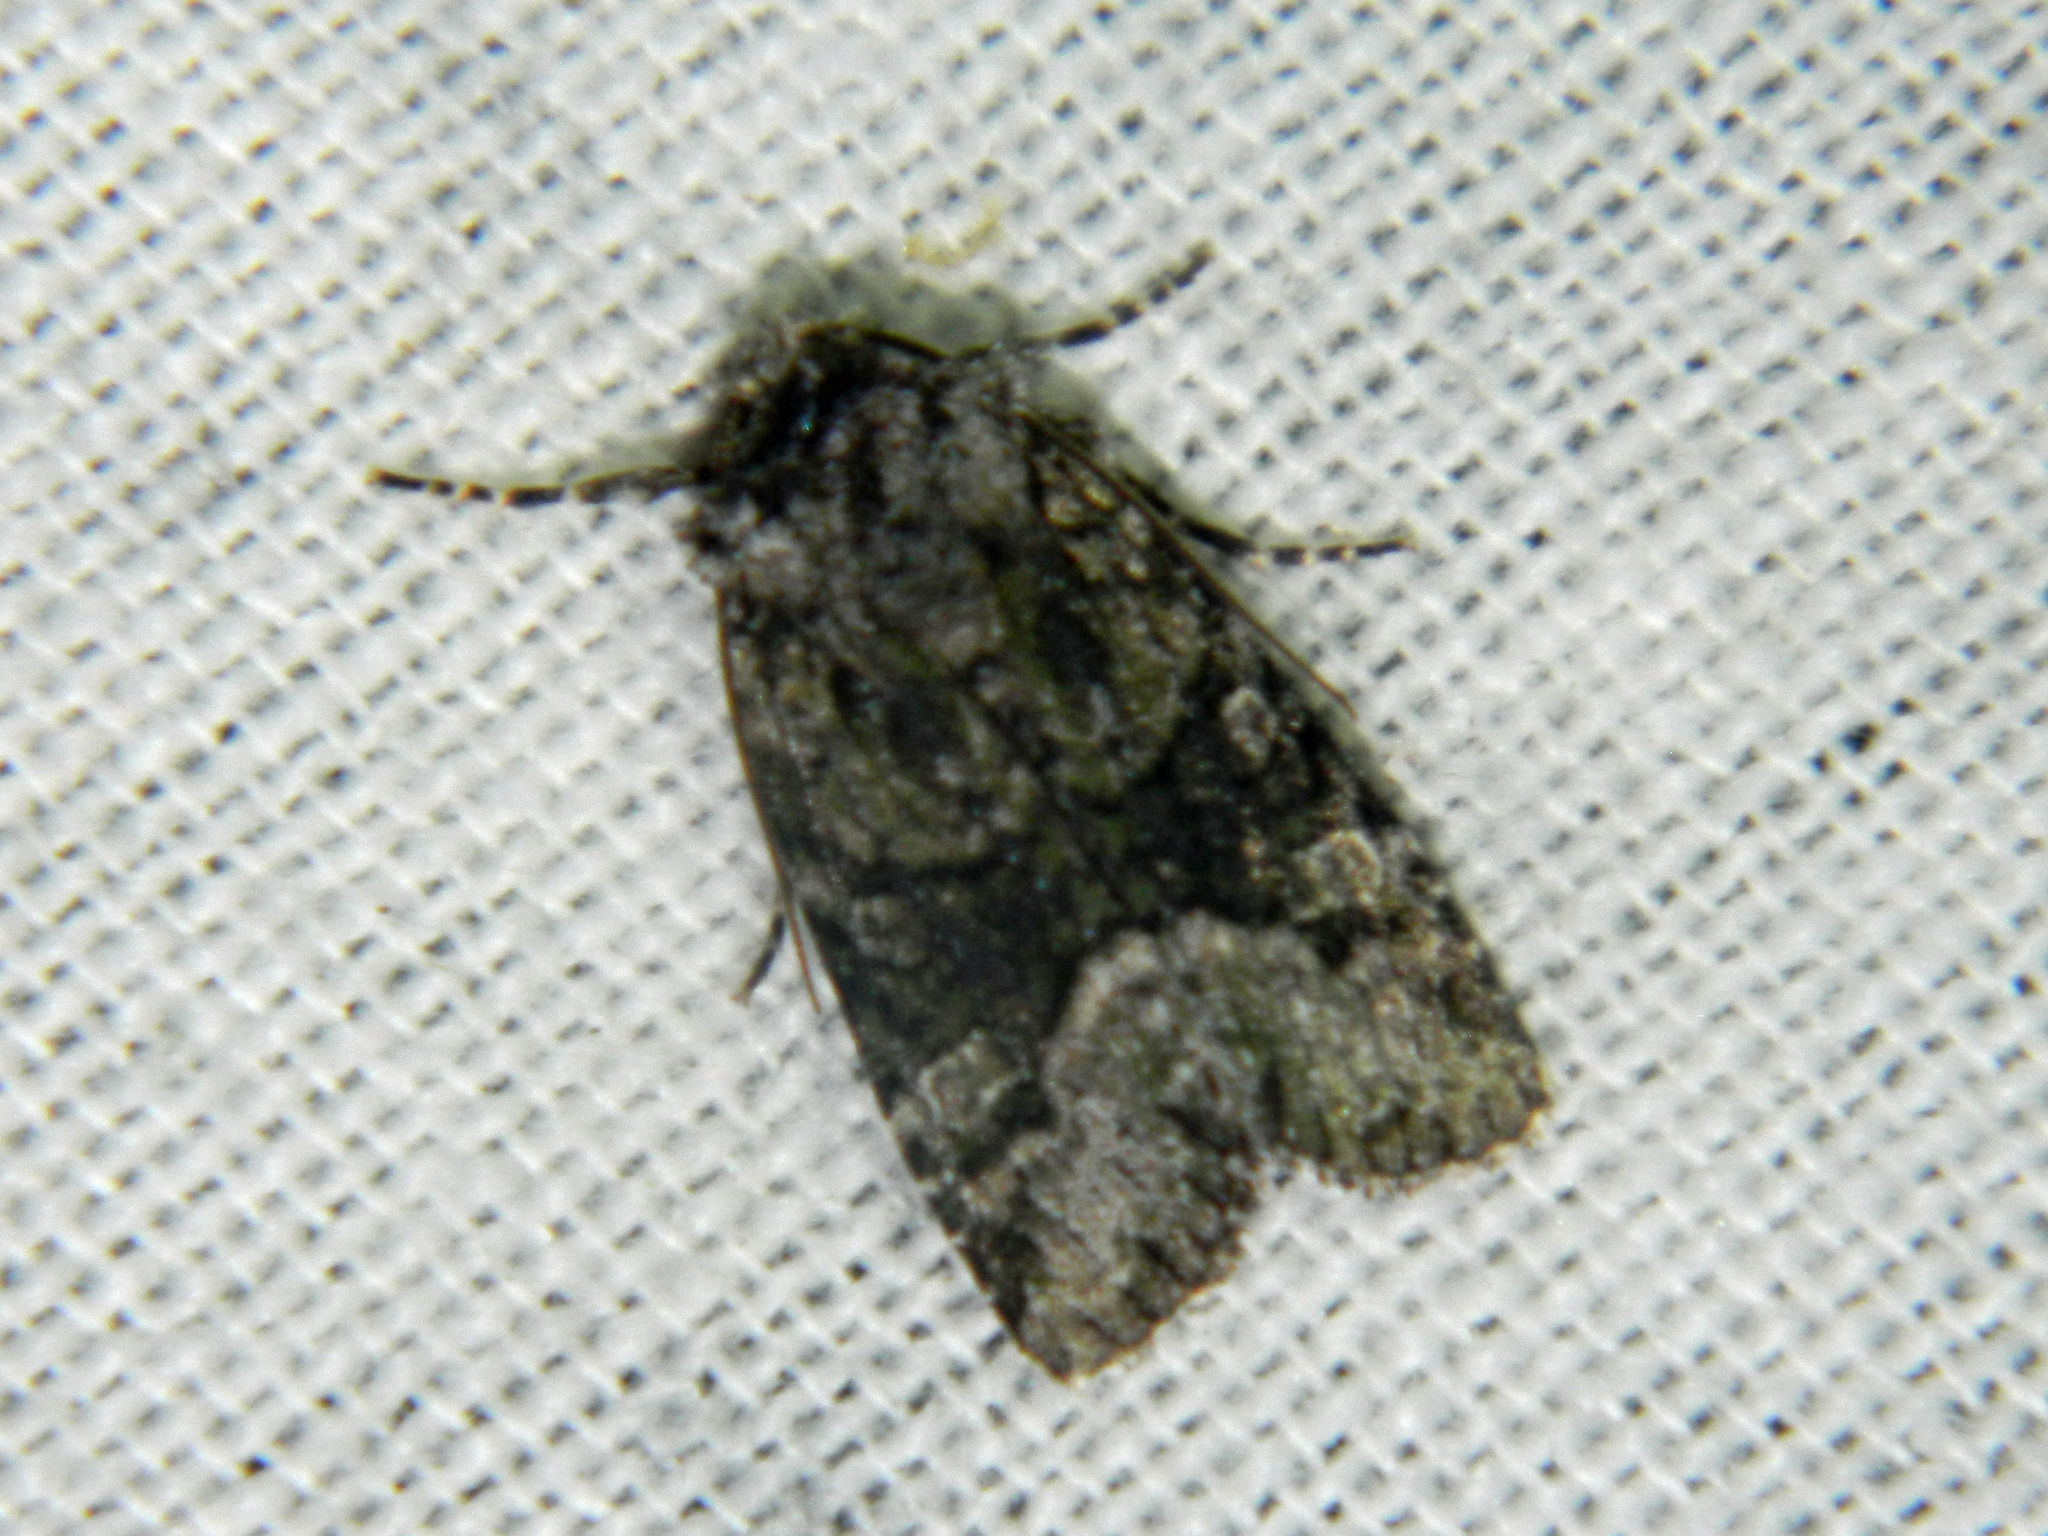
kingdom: Animalia
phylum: Arthropoda
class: Insecta
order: Lepidoptera
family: Noctuidae
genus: Lacinipolia
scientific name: Lacinipolia olivacea
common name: Olive arches moth
